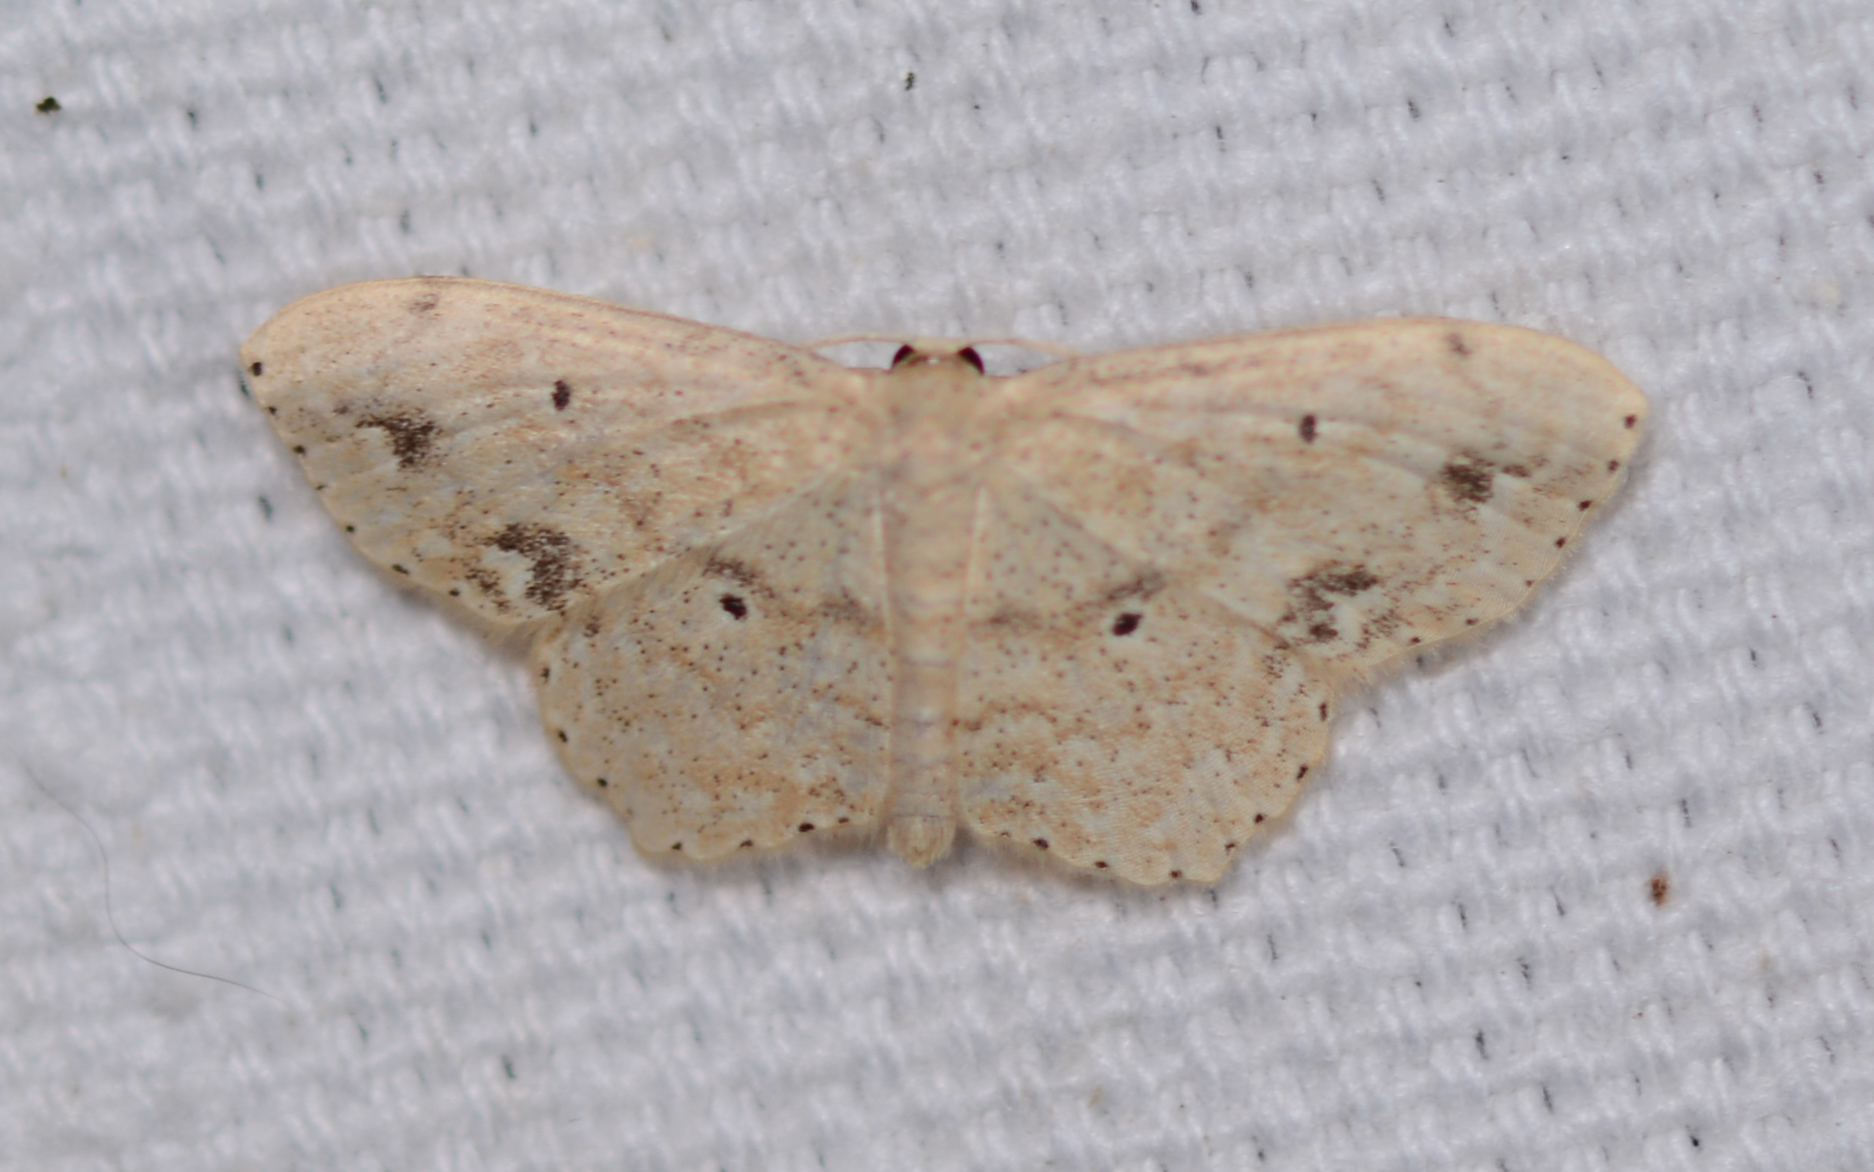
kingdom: Animalia
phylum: Arthropoda
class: Insecta
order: Lepidoptera
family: Geometridae
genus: Scopula
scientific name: Scopula compensata
